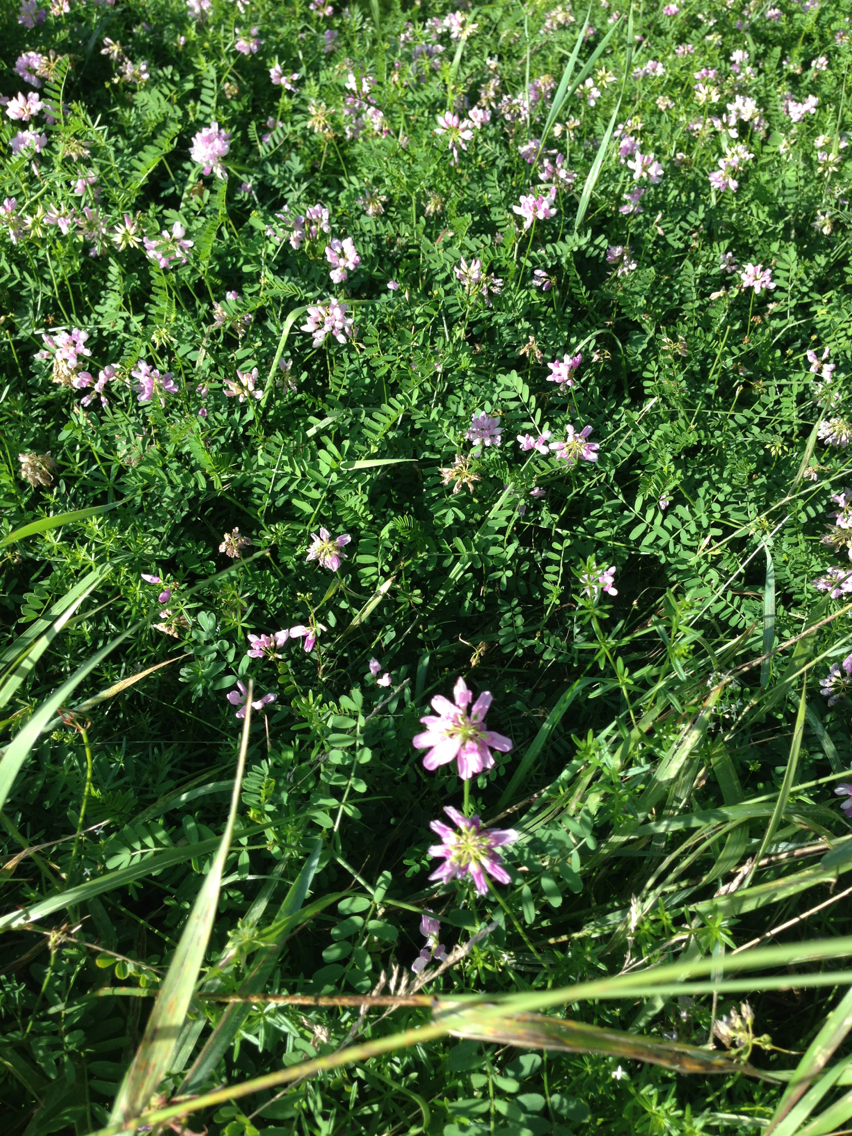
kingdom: Plantae
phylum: Tracheophyta
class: Magnoliopsida
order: Fabales
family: Fabaceae
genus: Coronilla
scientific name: Coronilla varia
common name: Crownvetch
